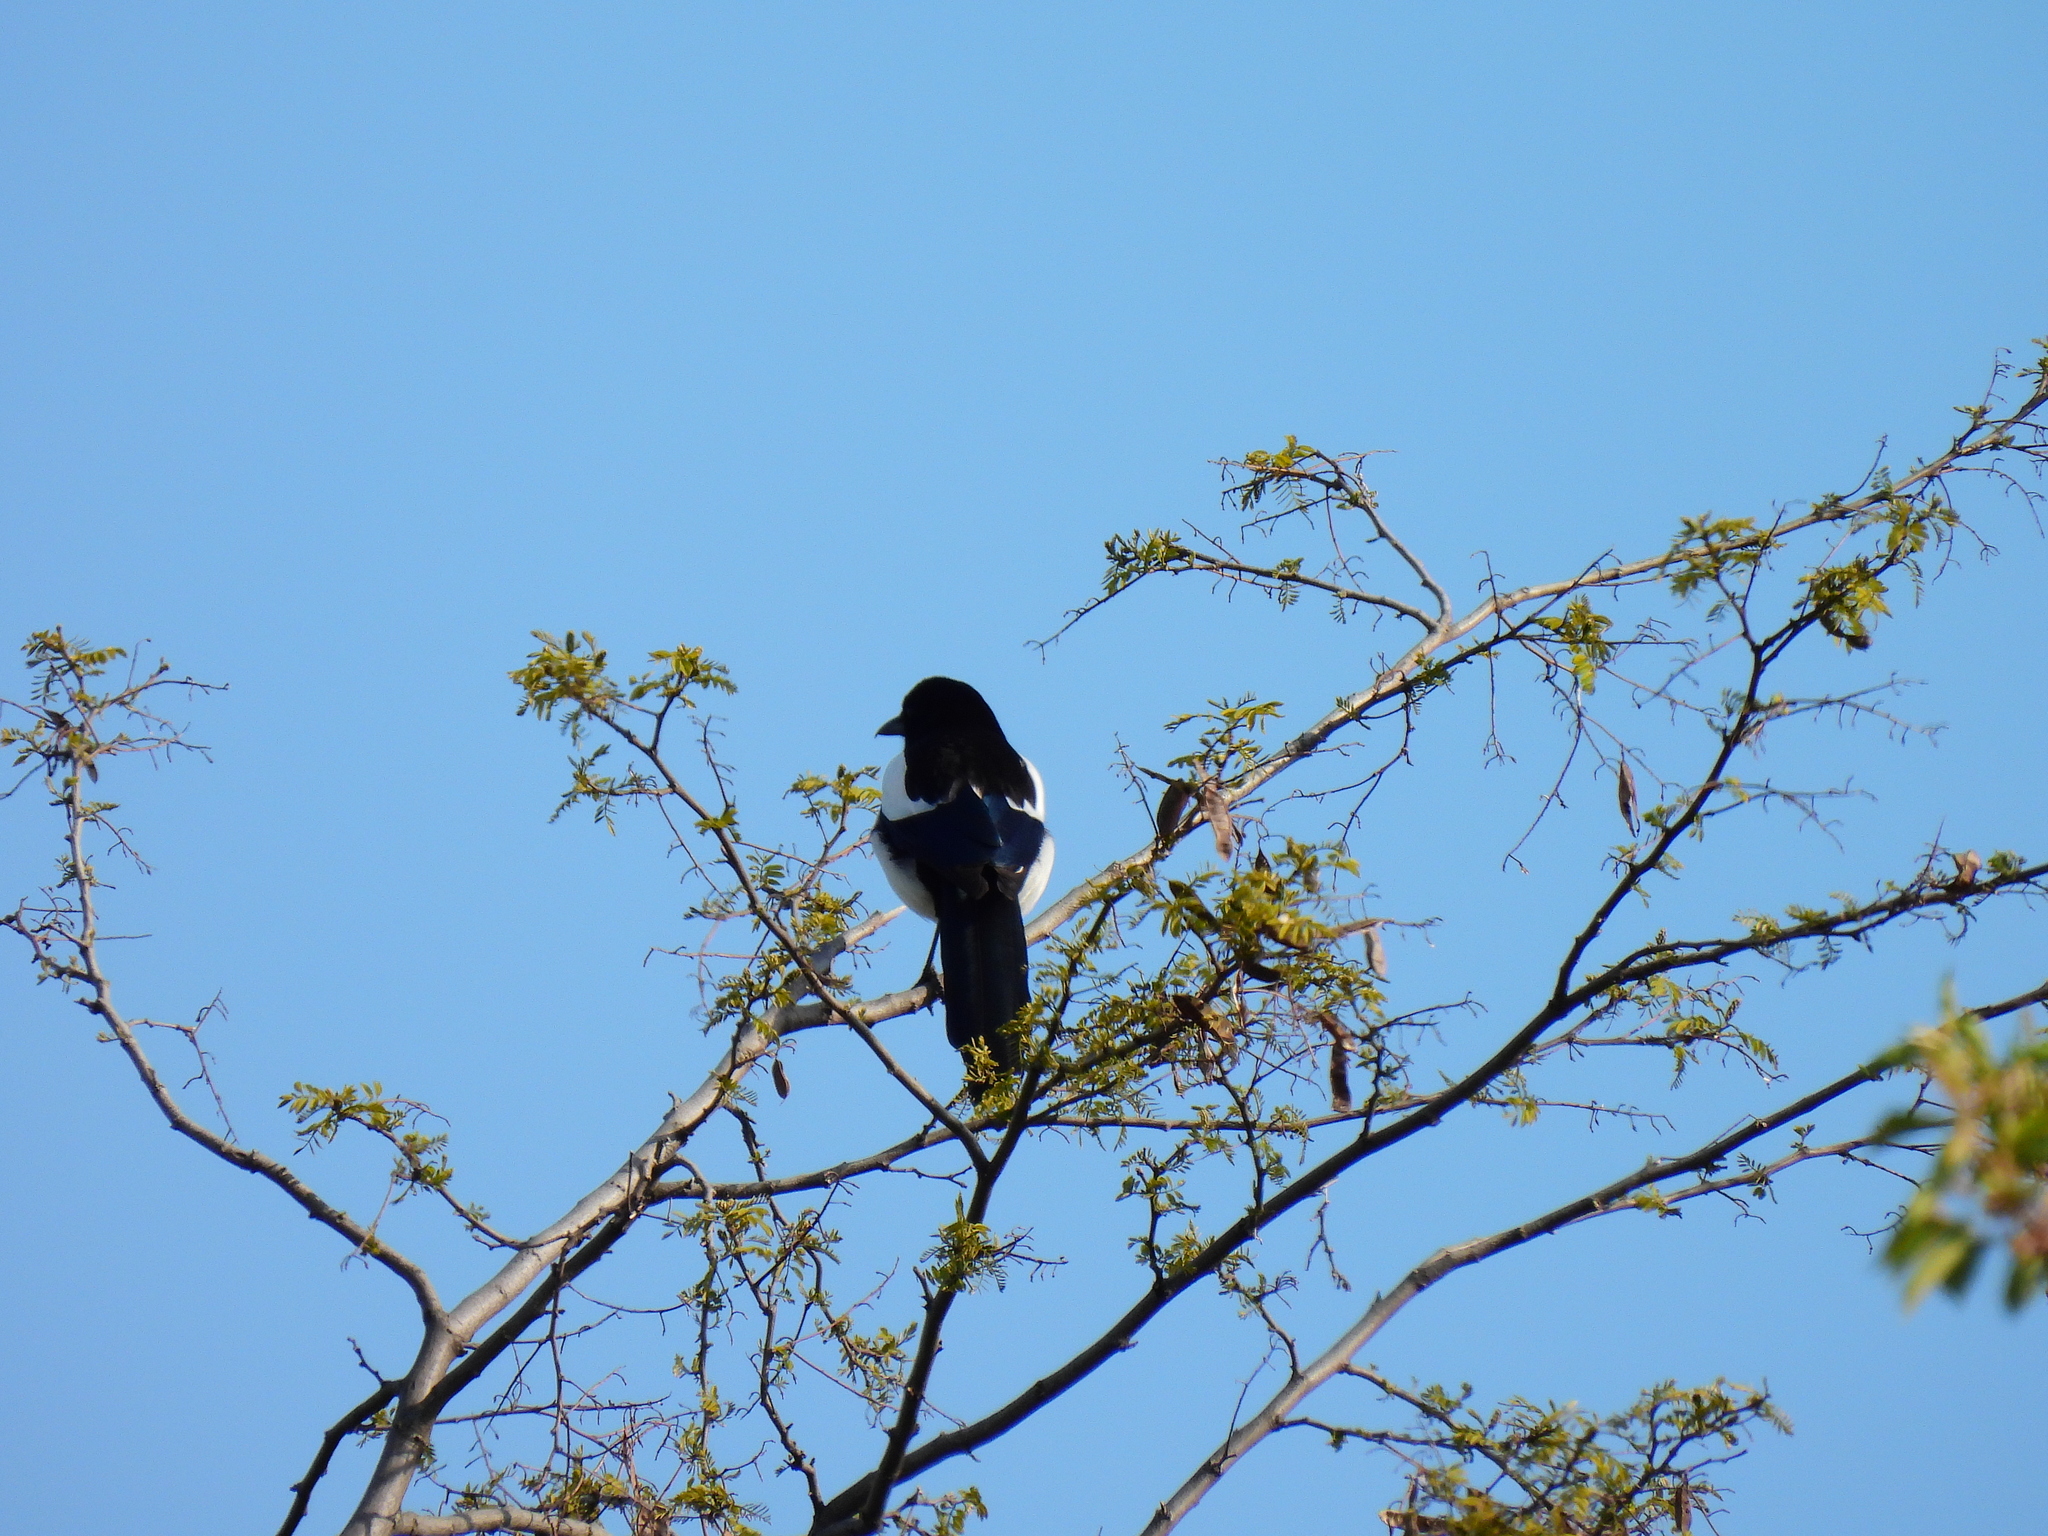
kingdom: Animalia
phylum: Chordata
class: Aves
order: Passeriformes
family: Corvidae
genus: Pica
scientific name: Pica pica
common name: Eurasian magpie
